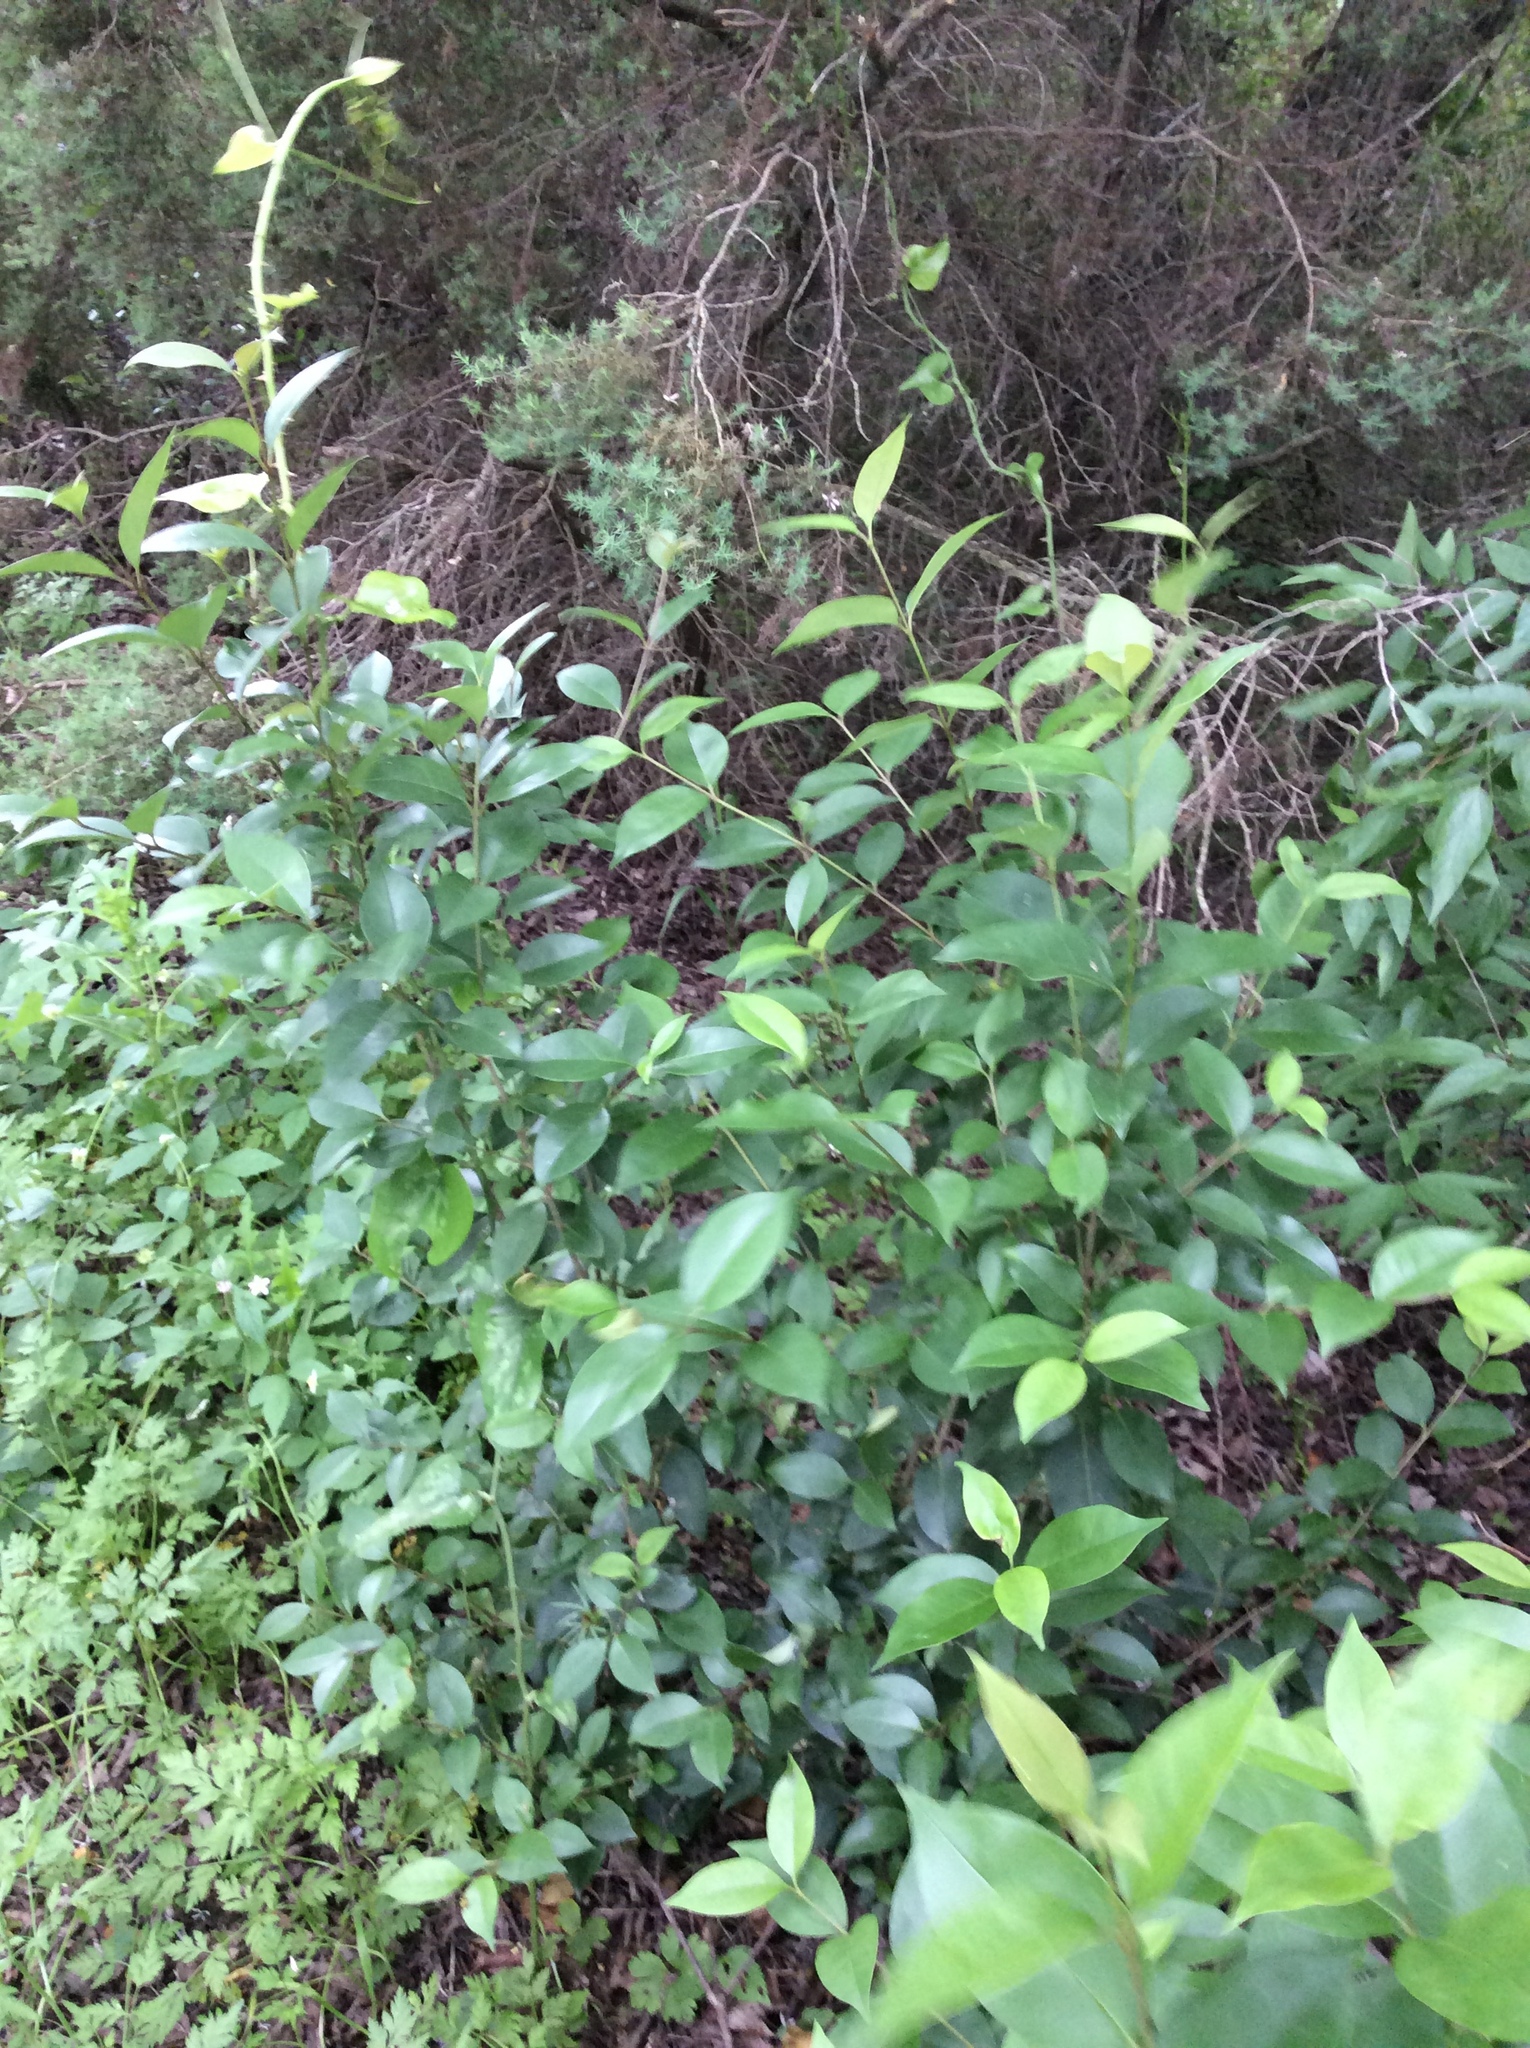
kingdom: Plantae
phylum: Tracheophyta
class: Magnoliopsida
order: Lamiales
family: Oleaceae
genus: Ligustrum
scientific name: Ligustrum lucidum
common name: Glossy privet
